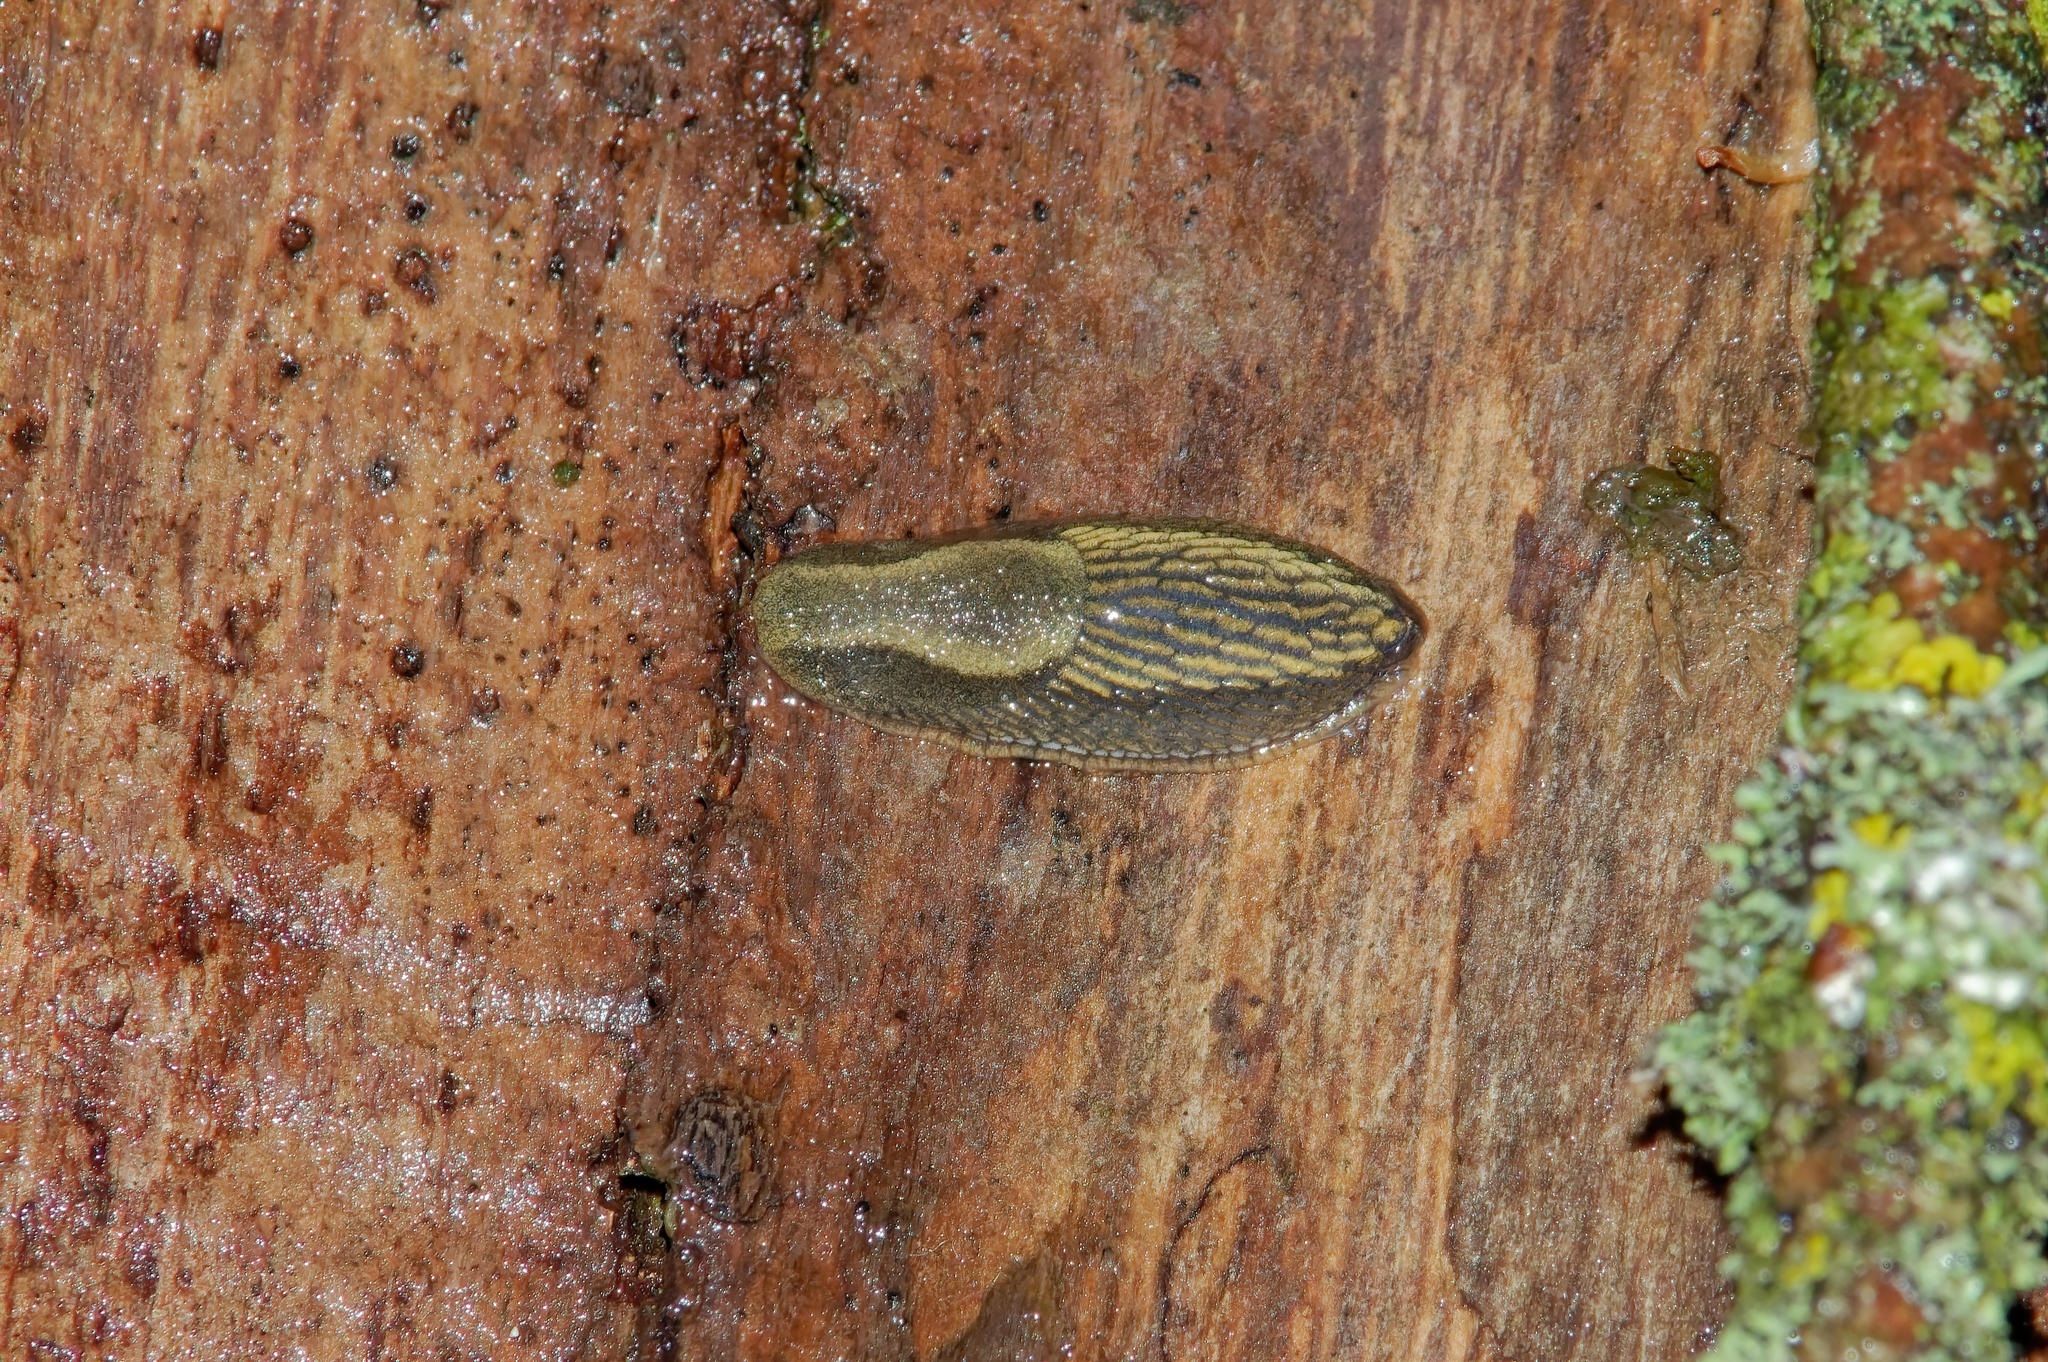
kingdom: Animalia
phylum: Mollusca
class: Gastropoda
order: Stylommatophora
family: Arionidae
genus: Arion
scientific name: Arion vulgaris
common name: Lusitanian slug
